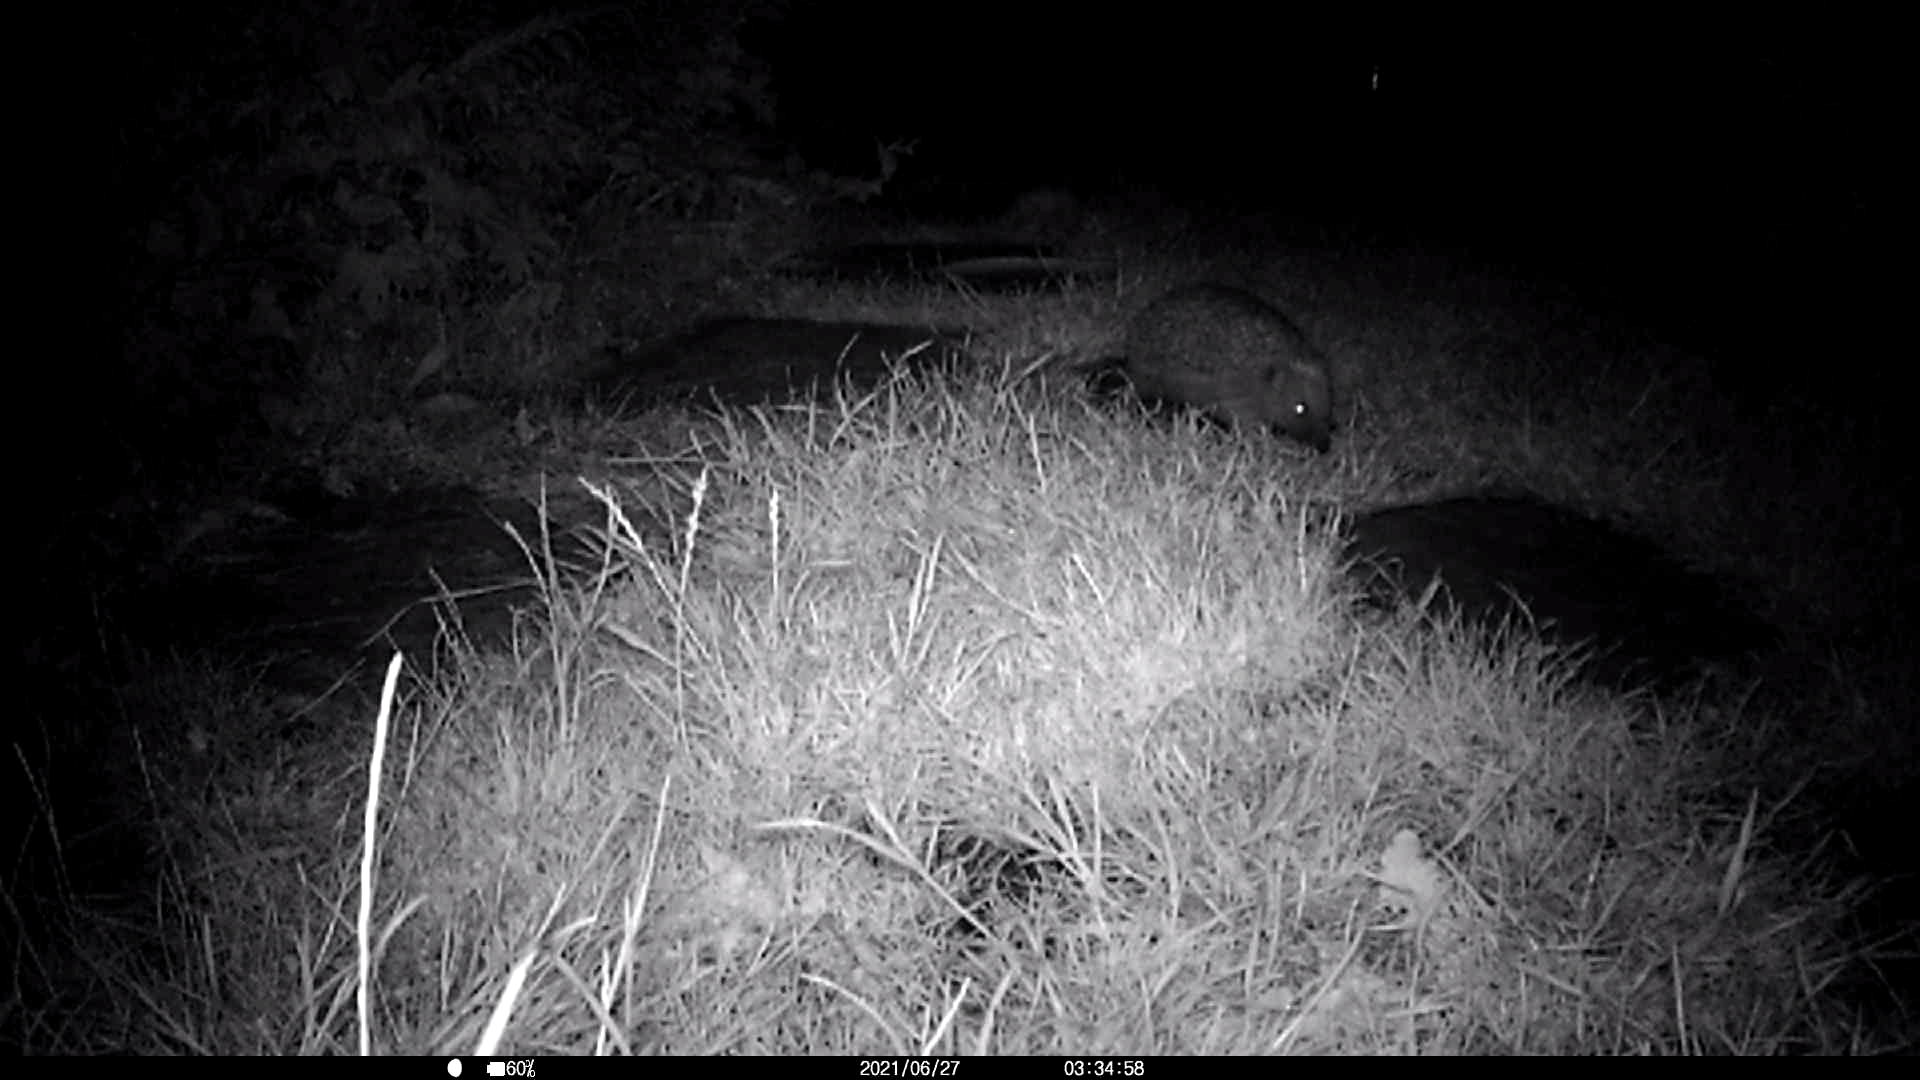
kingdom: Animalia
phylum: Chordata
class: Mammalia
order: Erinaceomorpha
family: Erinaceidae
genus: Erinaceus
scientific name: Erinaceus europaeus
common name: West european hedgehog
